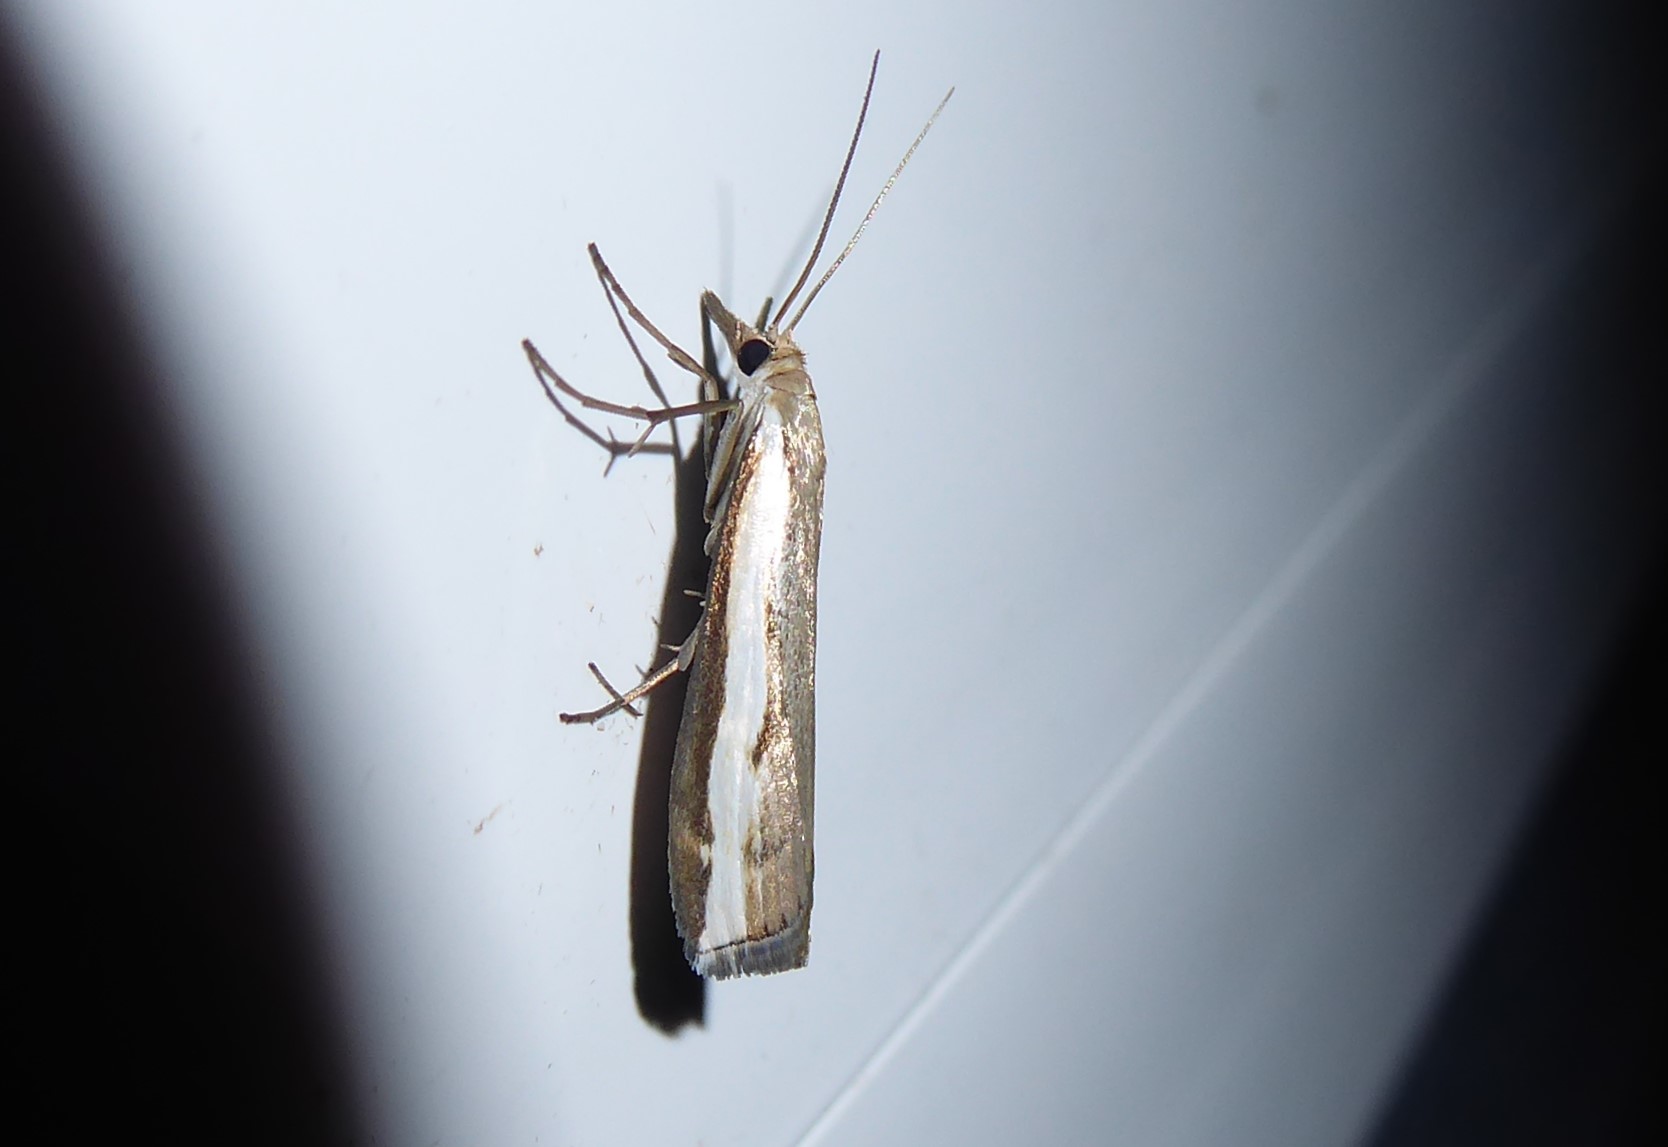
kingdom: Animalia
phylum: Arthropoda
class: Insecta
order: Lepidoptera
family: Crambidae
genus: Orocrambus
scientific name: Orocrambus flexuosellus
